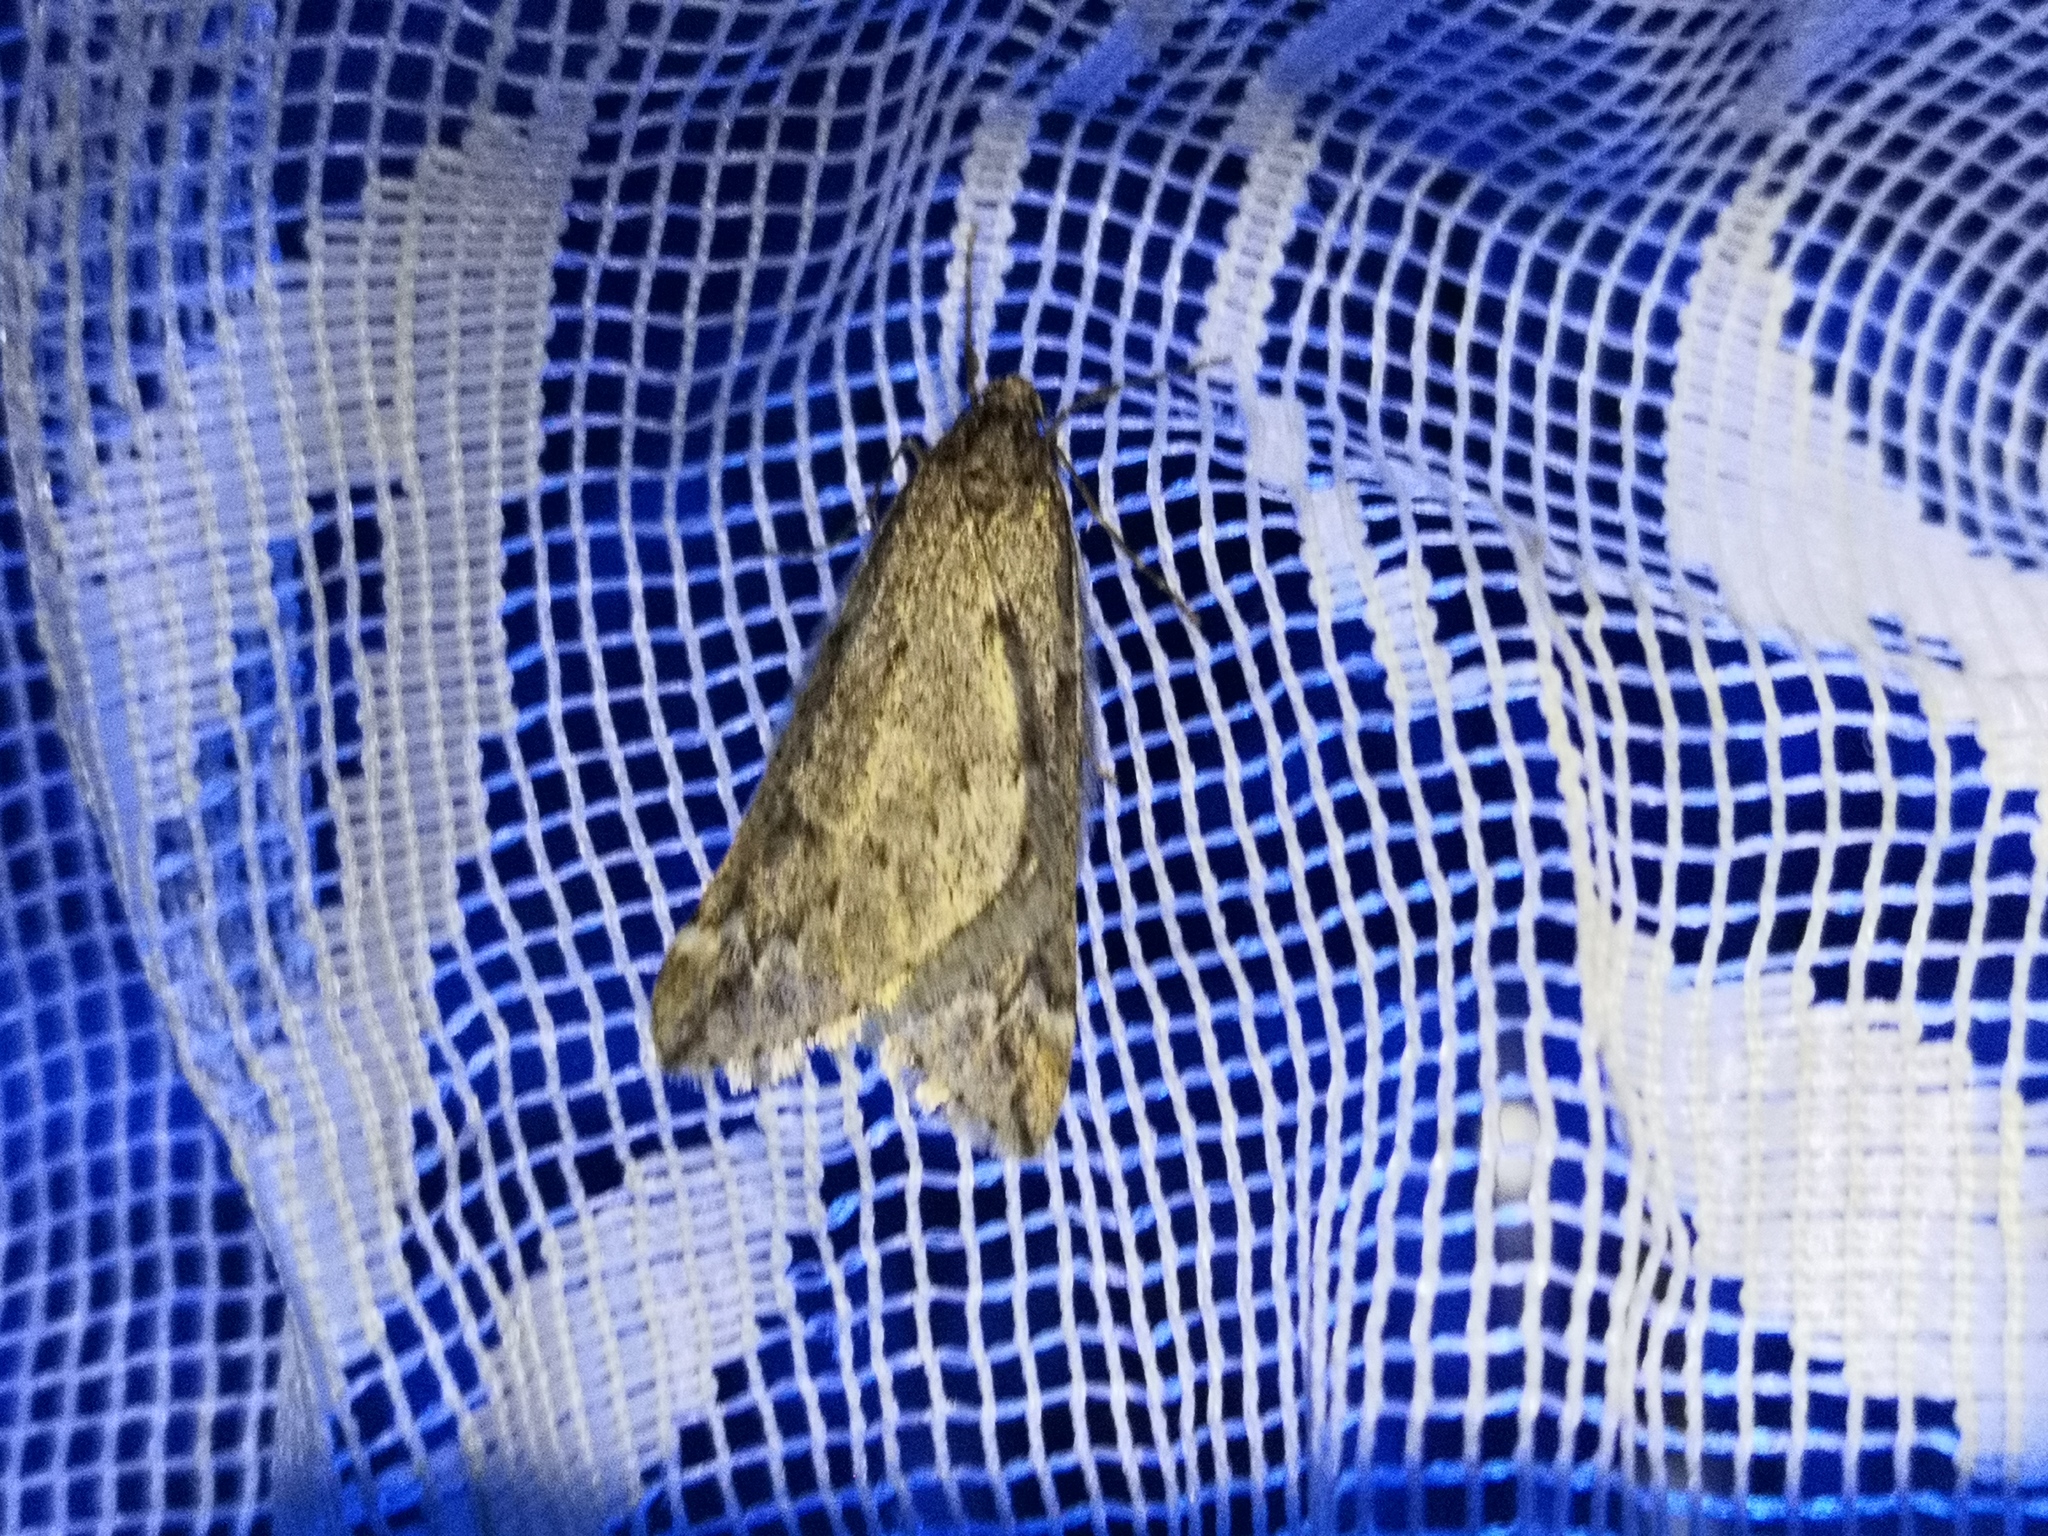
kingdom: Animalia
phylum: Arthropoda
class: Insecta
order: Lepidoptera
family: Geometridae
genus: Alsophila
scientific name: Alsophila aescularia
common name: March moth
